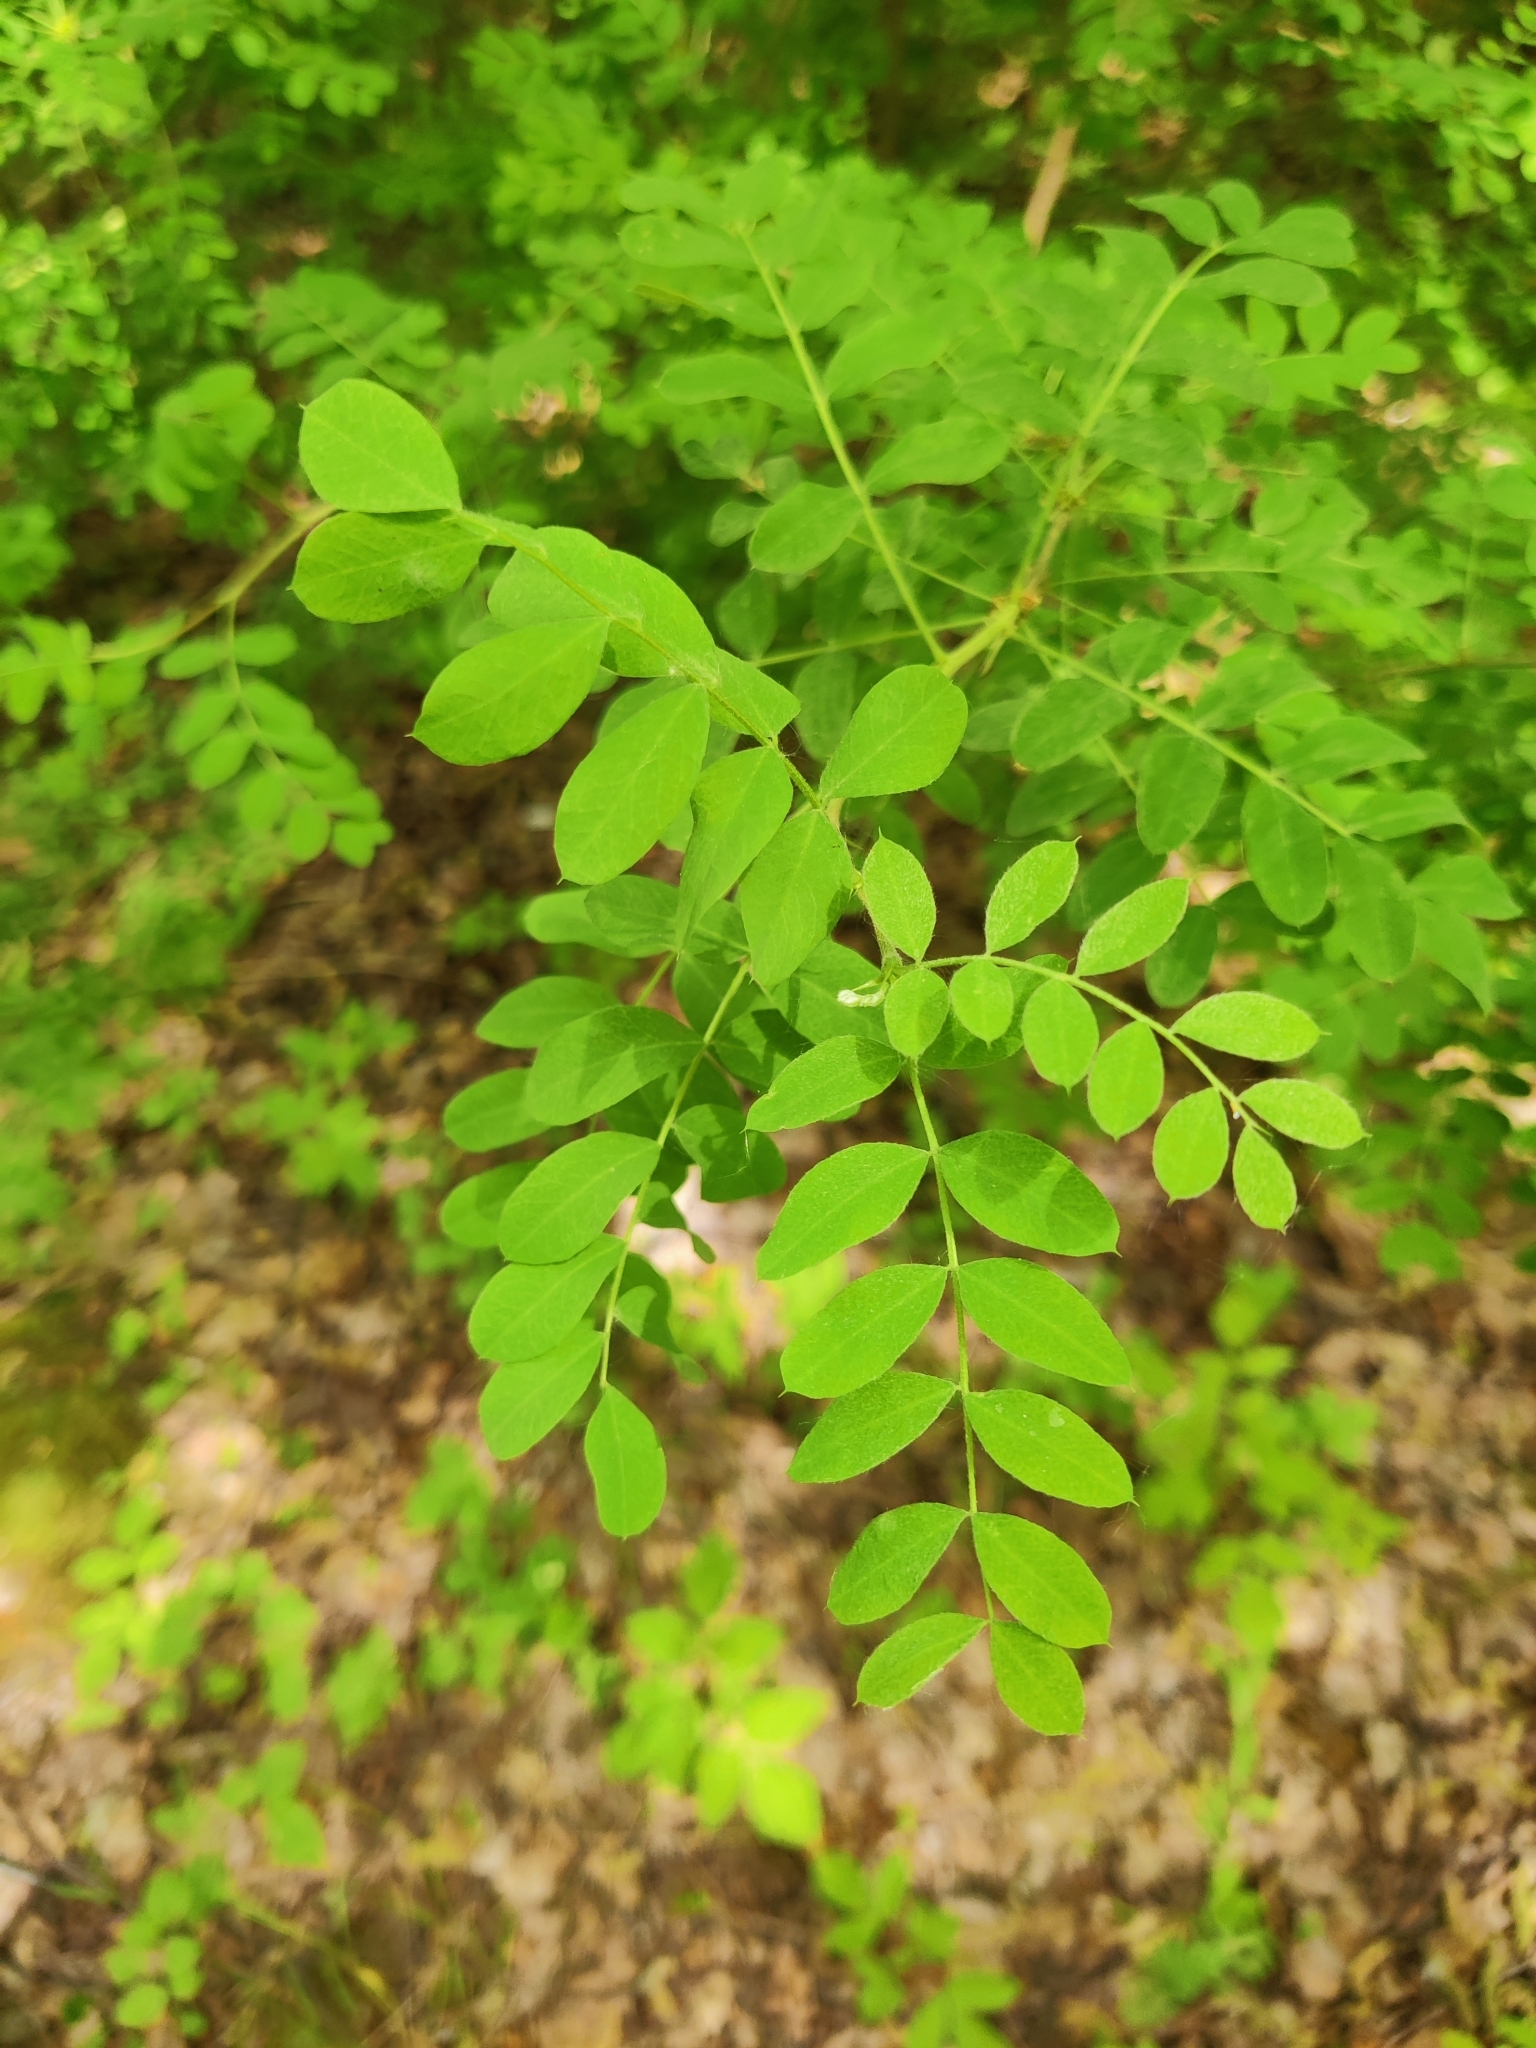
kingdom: Plantae
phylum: Tracheophyta
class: Magnoliopsida
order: Fabales
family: Fabaceae
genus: Caragana
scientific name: Caragana arborescens
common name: Siberian peashrub
